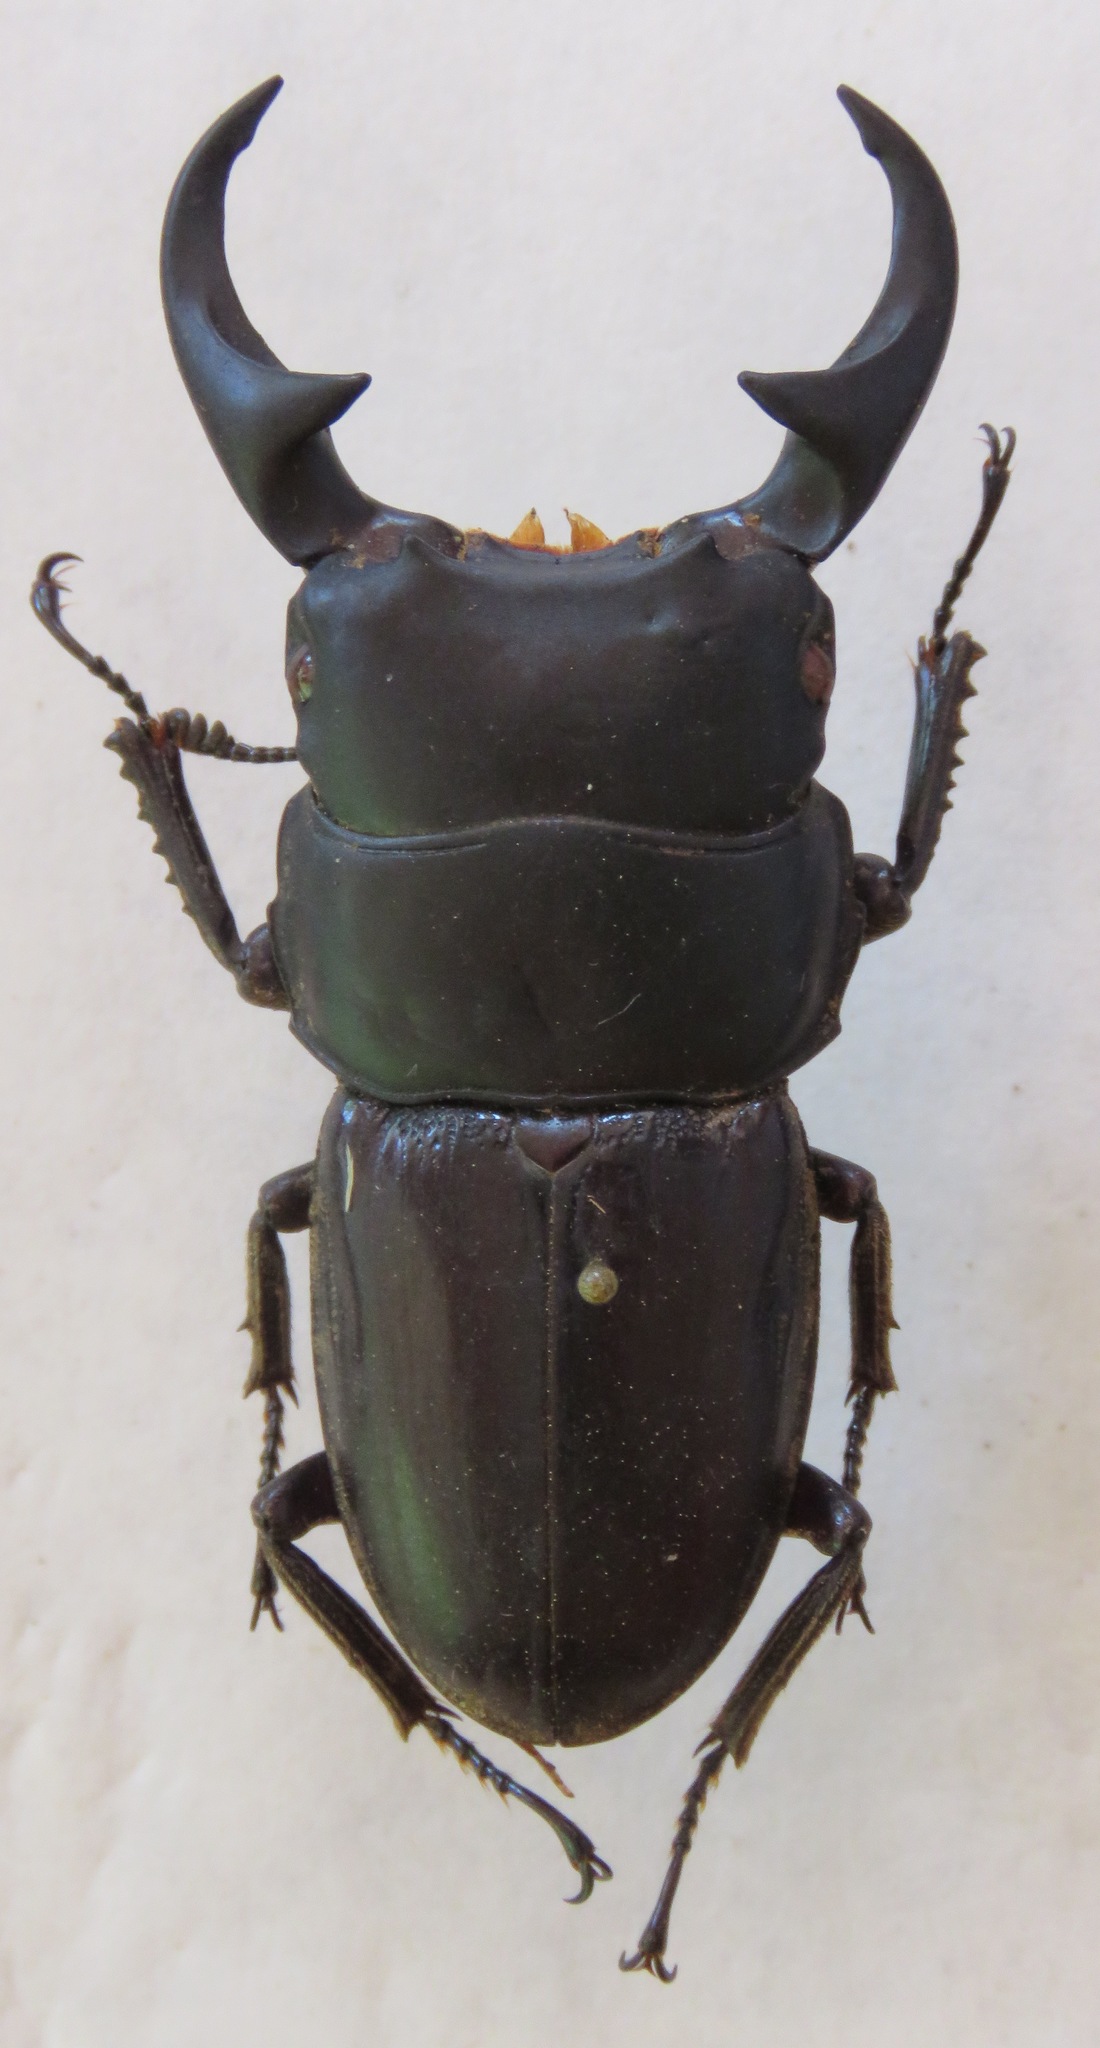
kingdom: Animalia
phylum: Arthropoda
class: Insecta
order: Coleoptera
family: Lucanidae
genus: Dorcus
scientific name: Dorcus ritsemae
